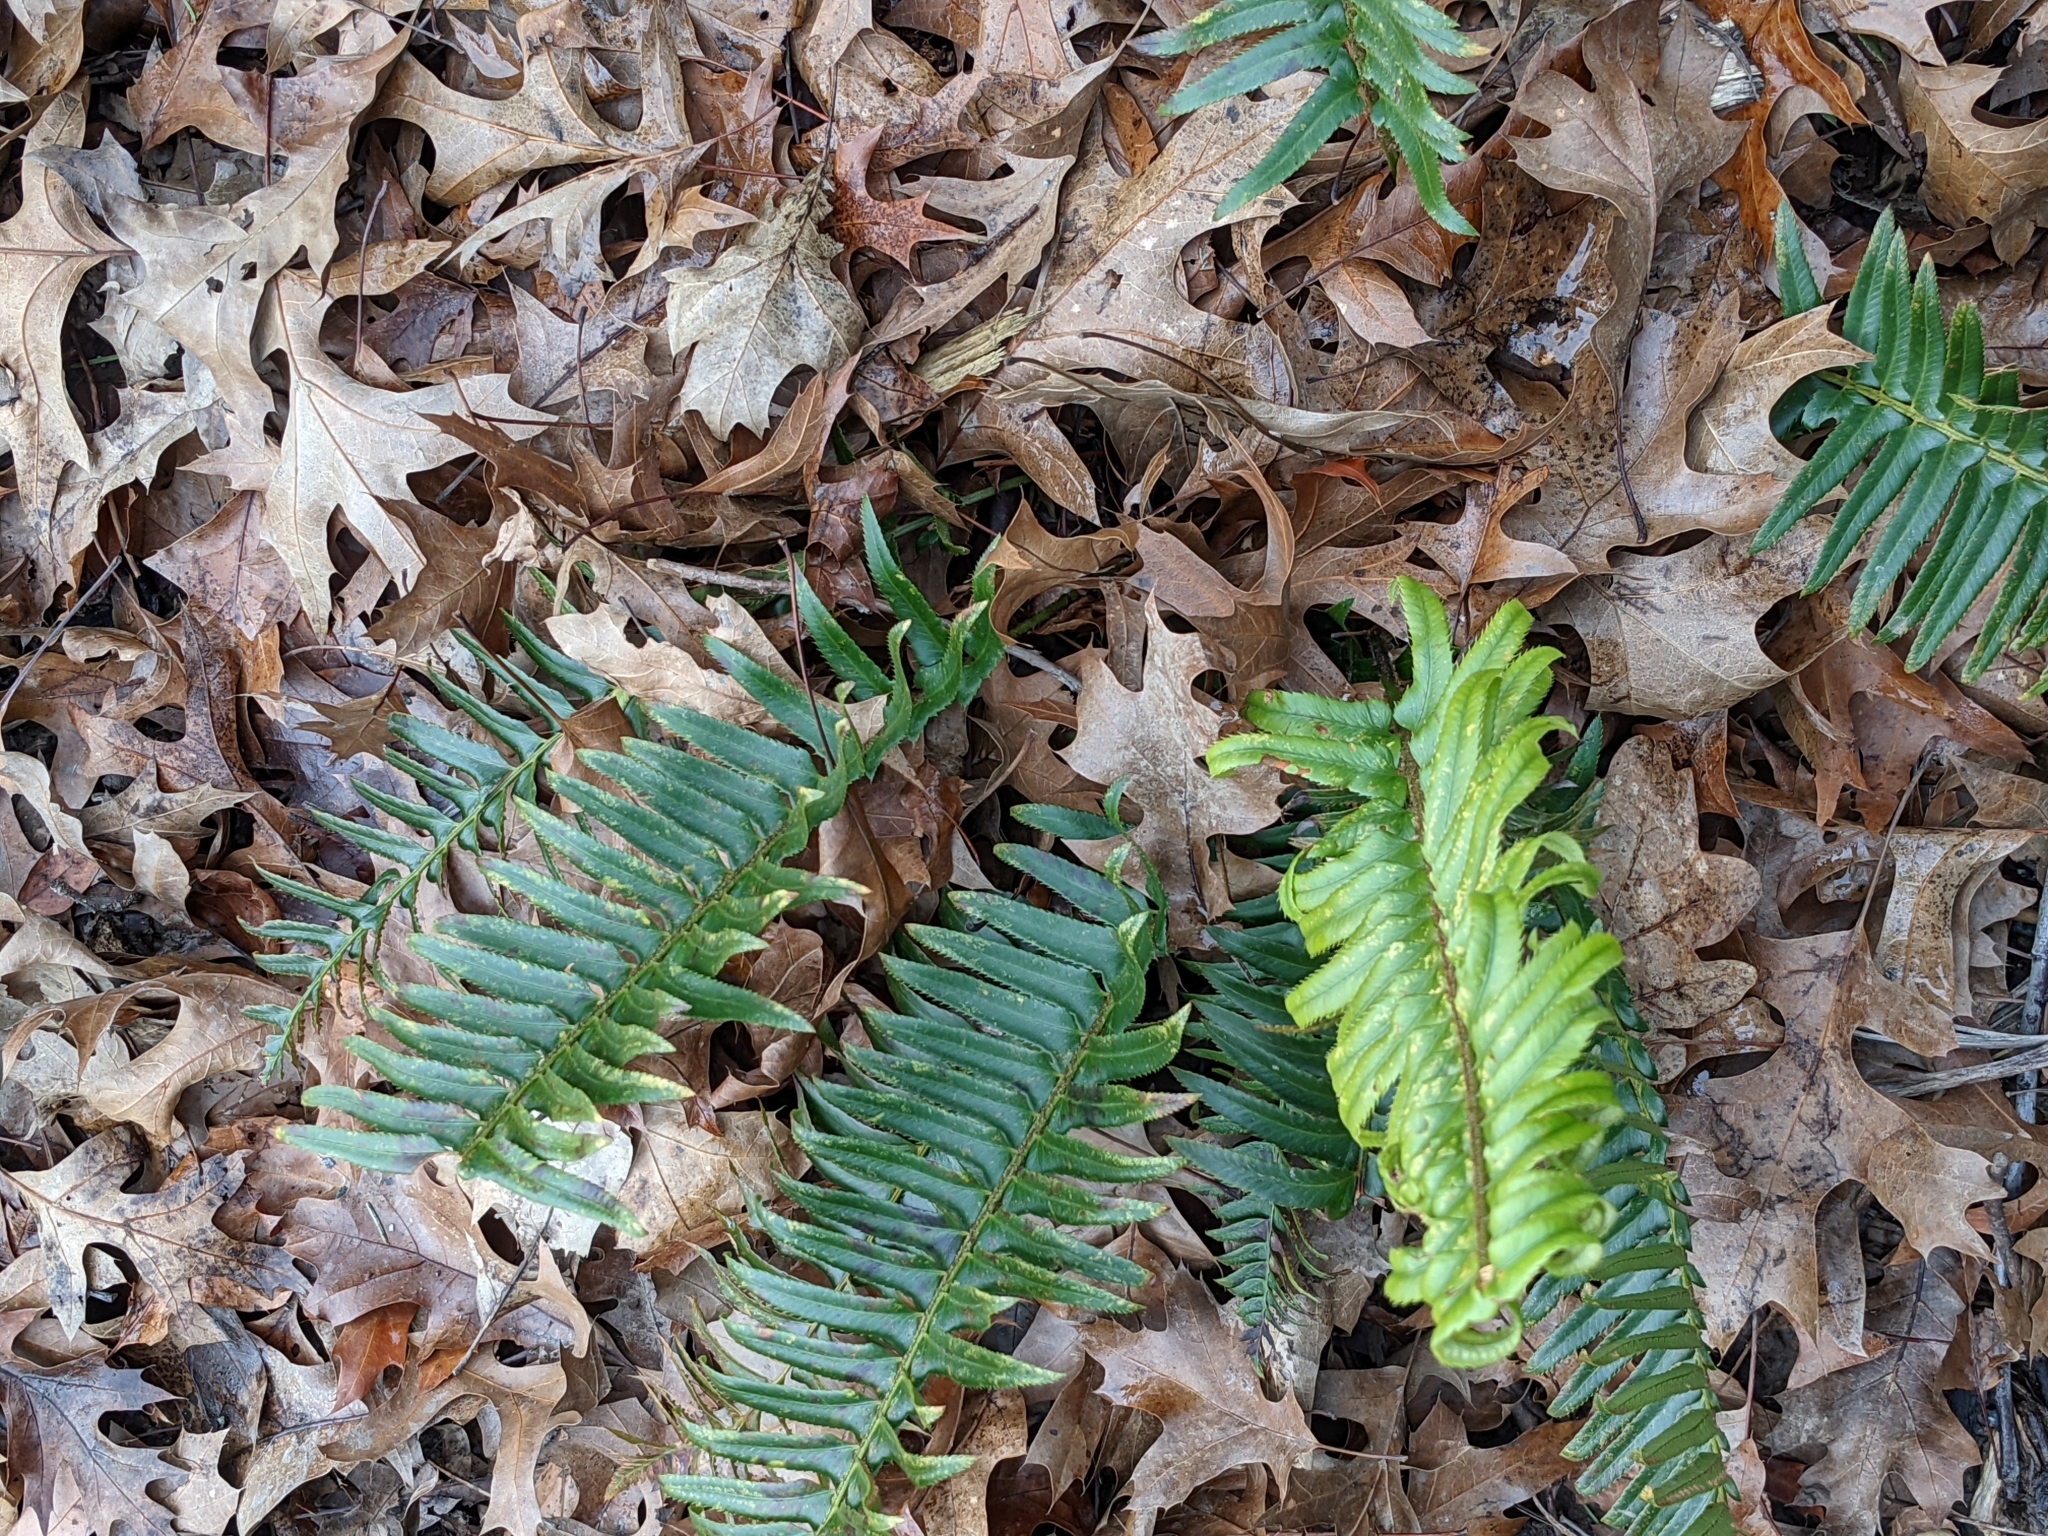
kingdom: Plantae
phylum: Tracheophyta
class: Polypodiopsida
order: Polypodiales
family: Dryopteridaceae
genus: Polystichum
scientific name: Polystichum munitum
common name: Western sword-fern
